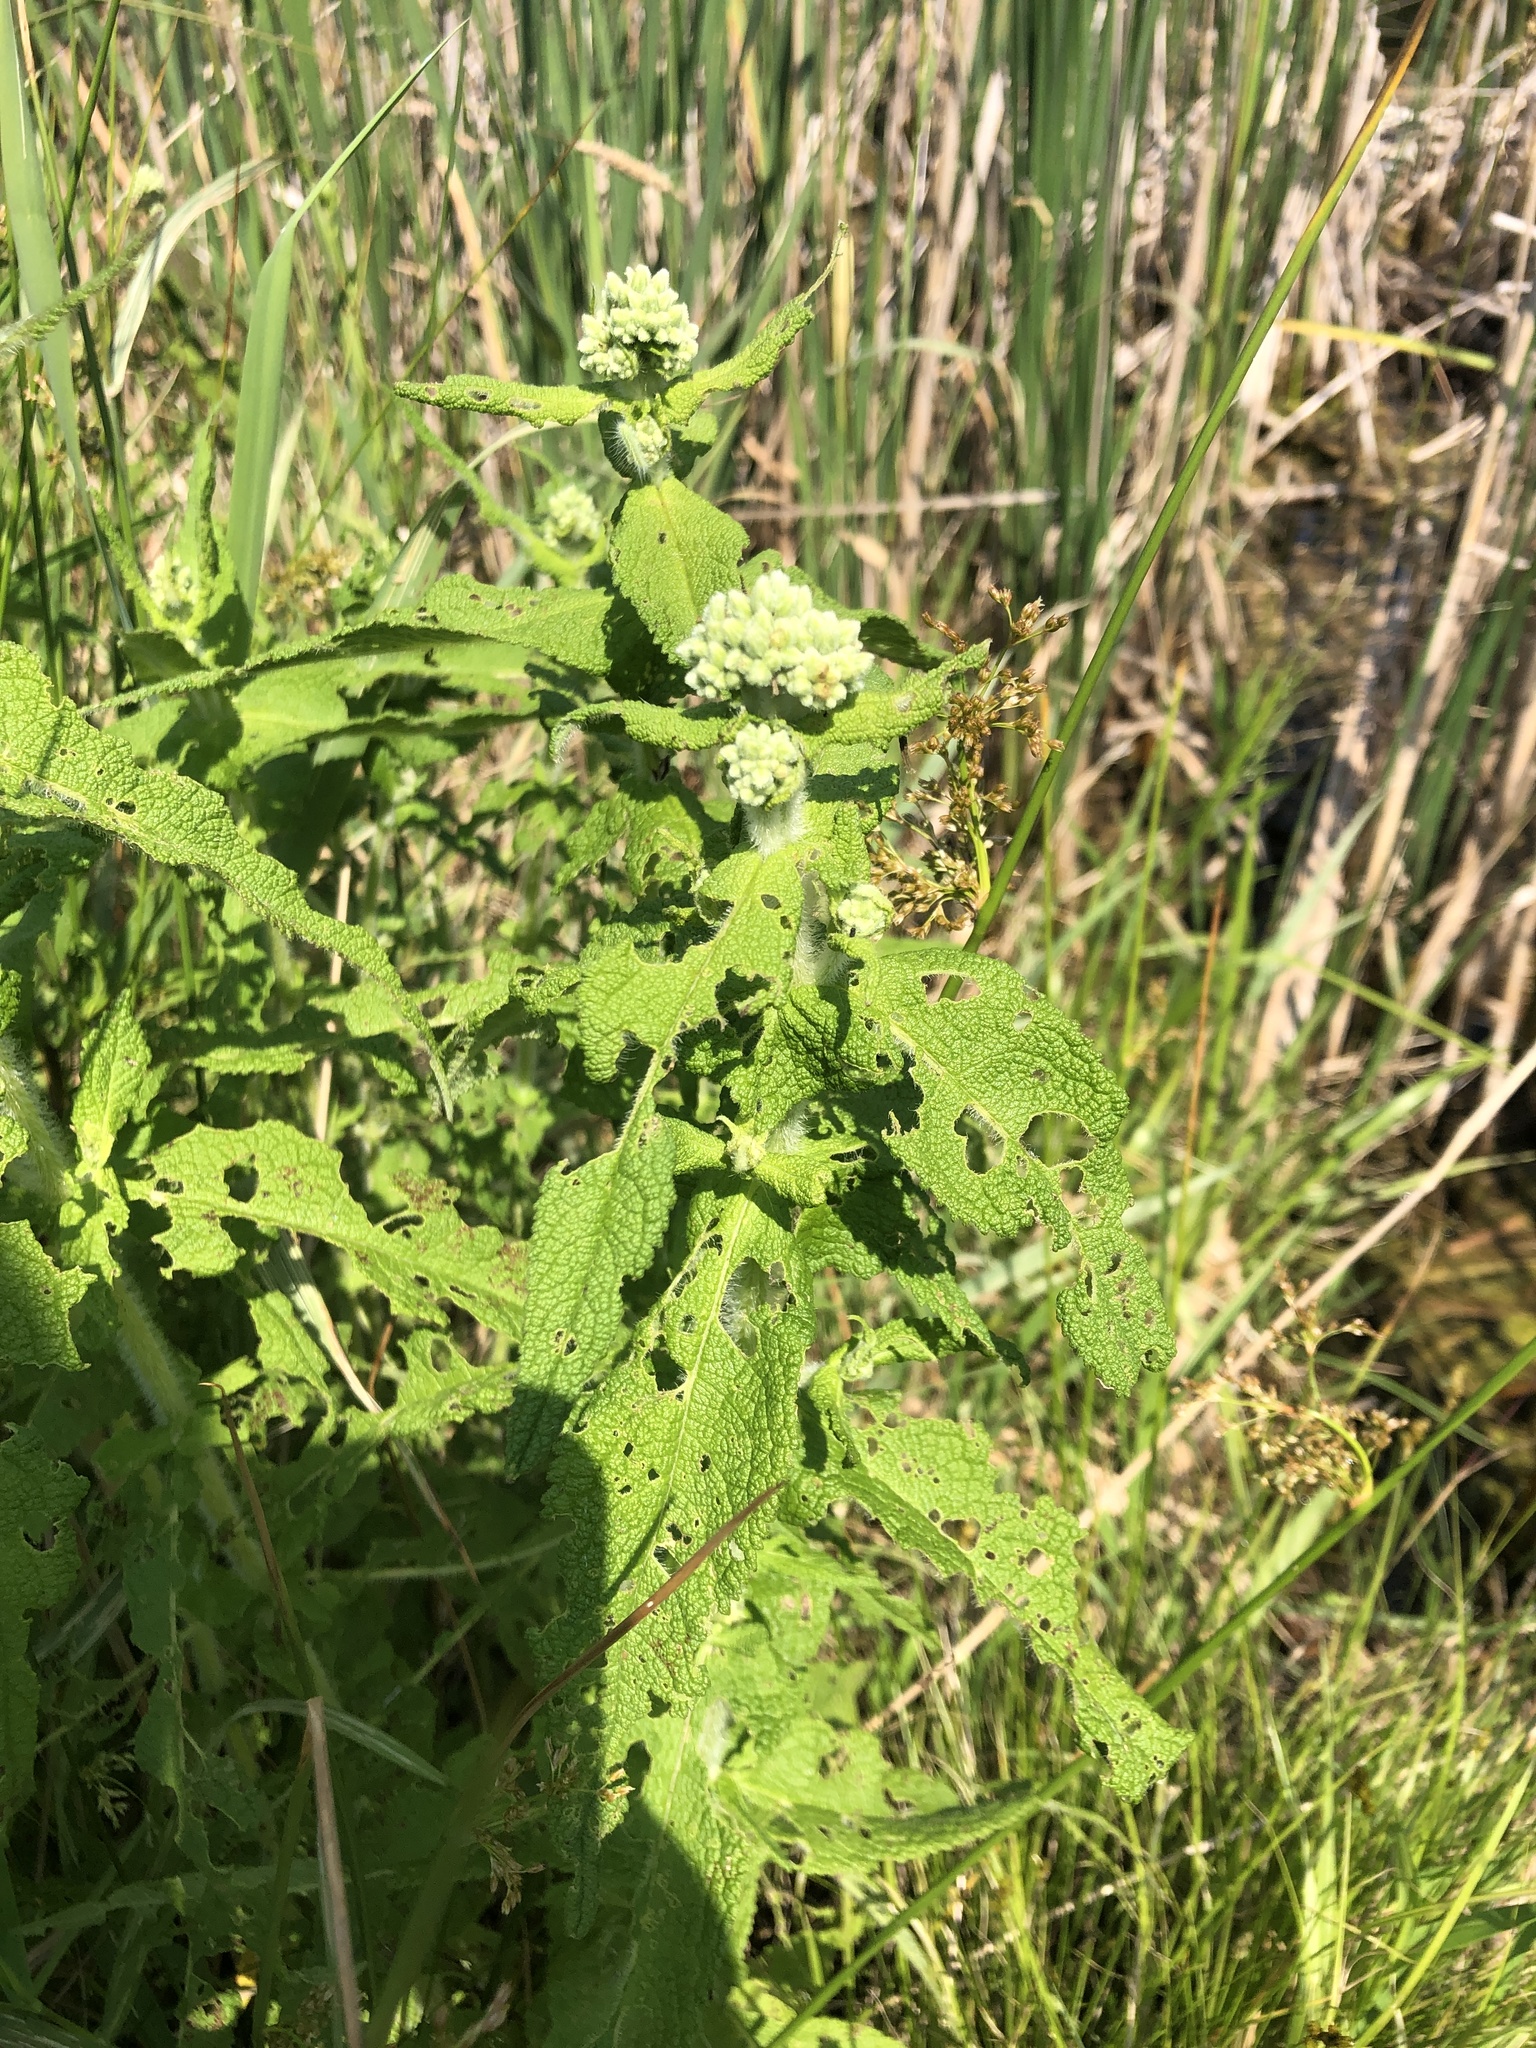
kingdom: Plantae
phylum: Tracheophyta
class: Magnoliopsida
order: Asterales
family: Asteraceae
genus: Eupatorium
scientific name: Eupatorium perfoliatum
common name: Boneset
